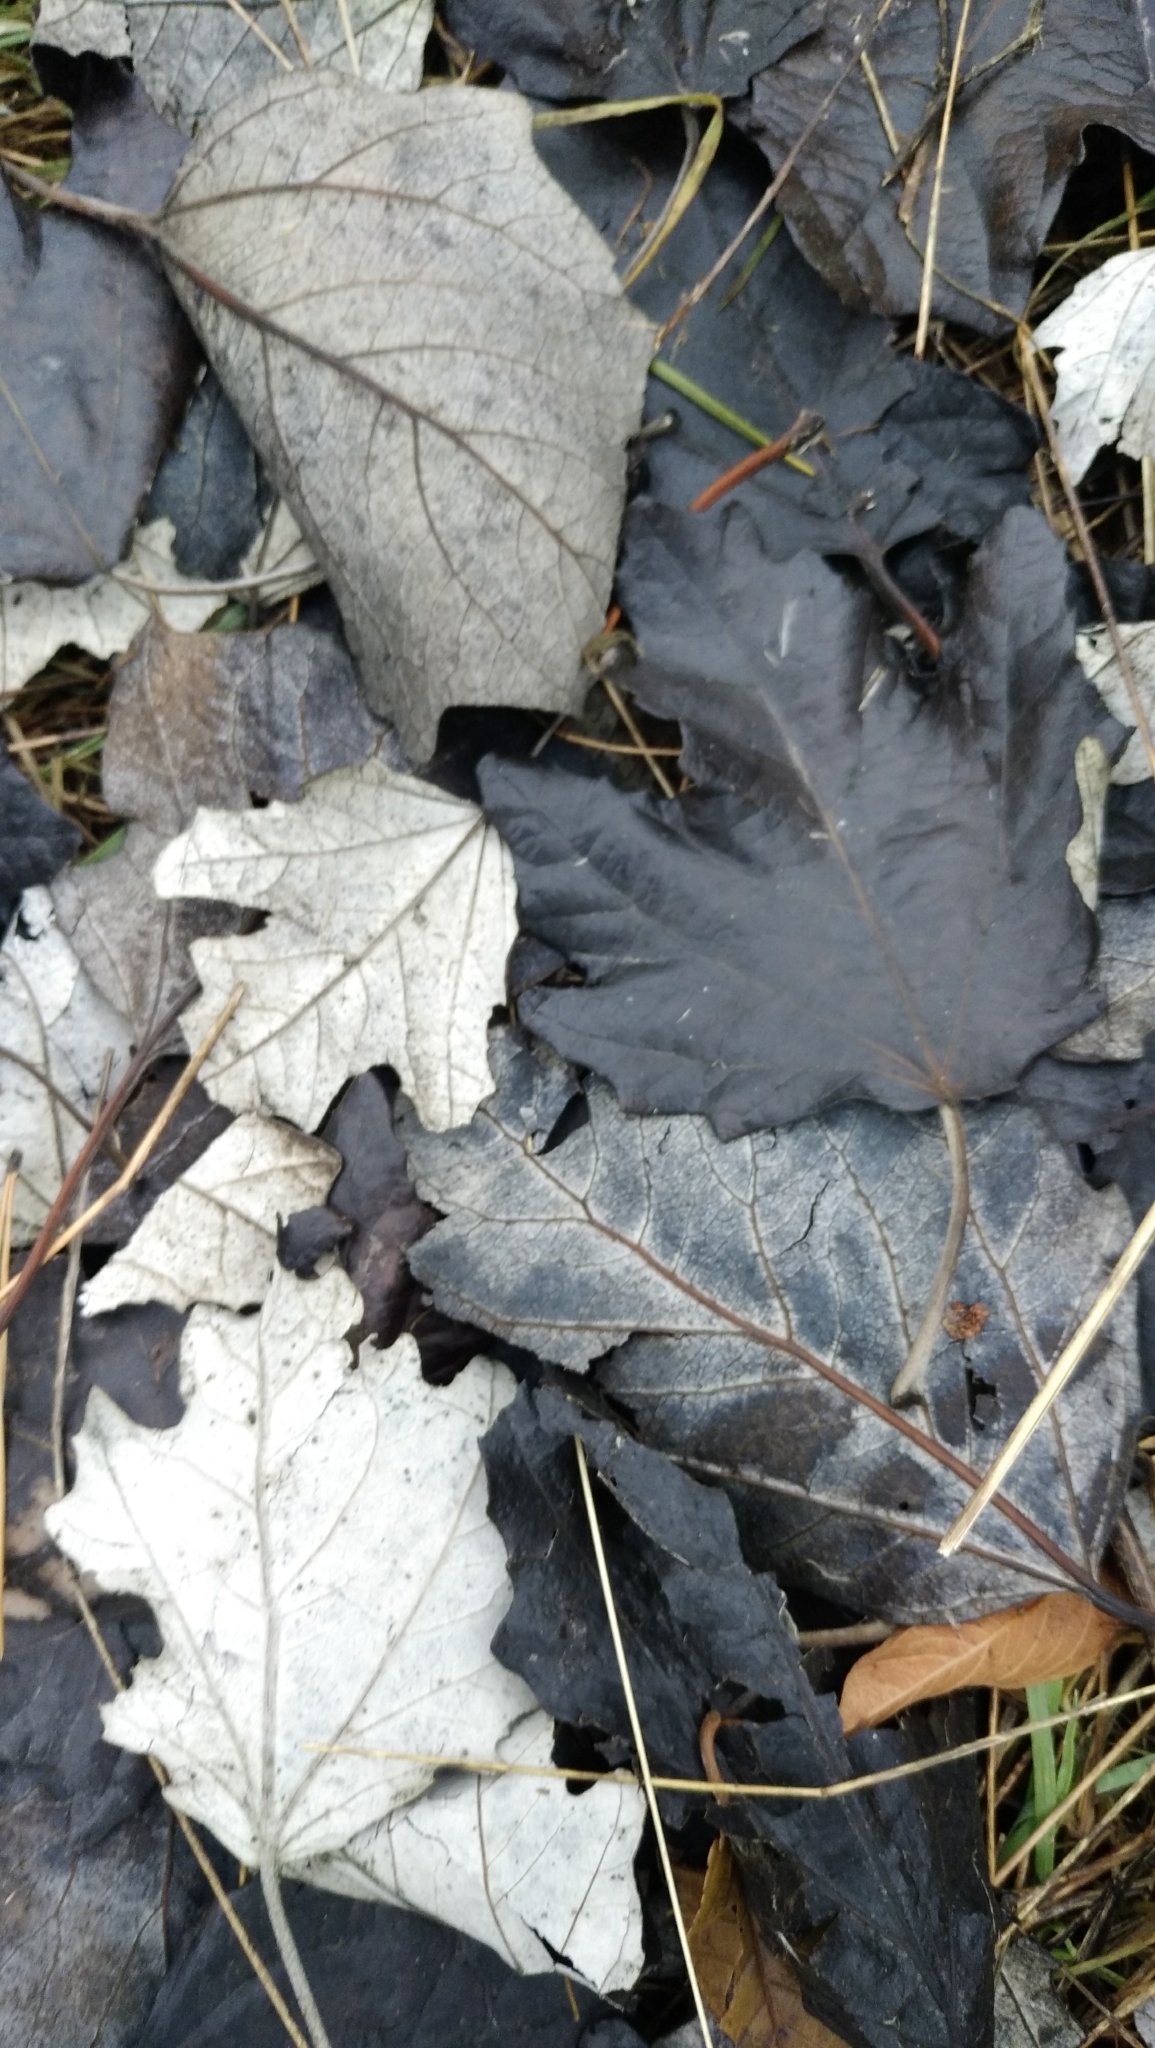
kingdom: Plantae
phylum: Tracheophyta
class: Magnoliopsida
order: Malpighiales
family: Salicaceae
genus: Populus
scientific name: Populus alba
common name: White poplar
